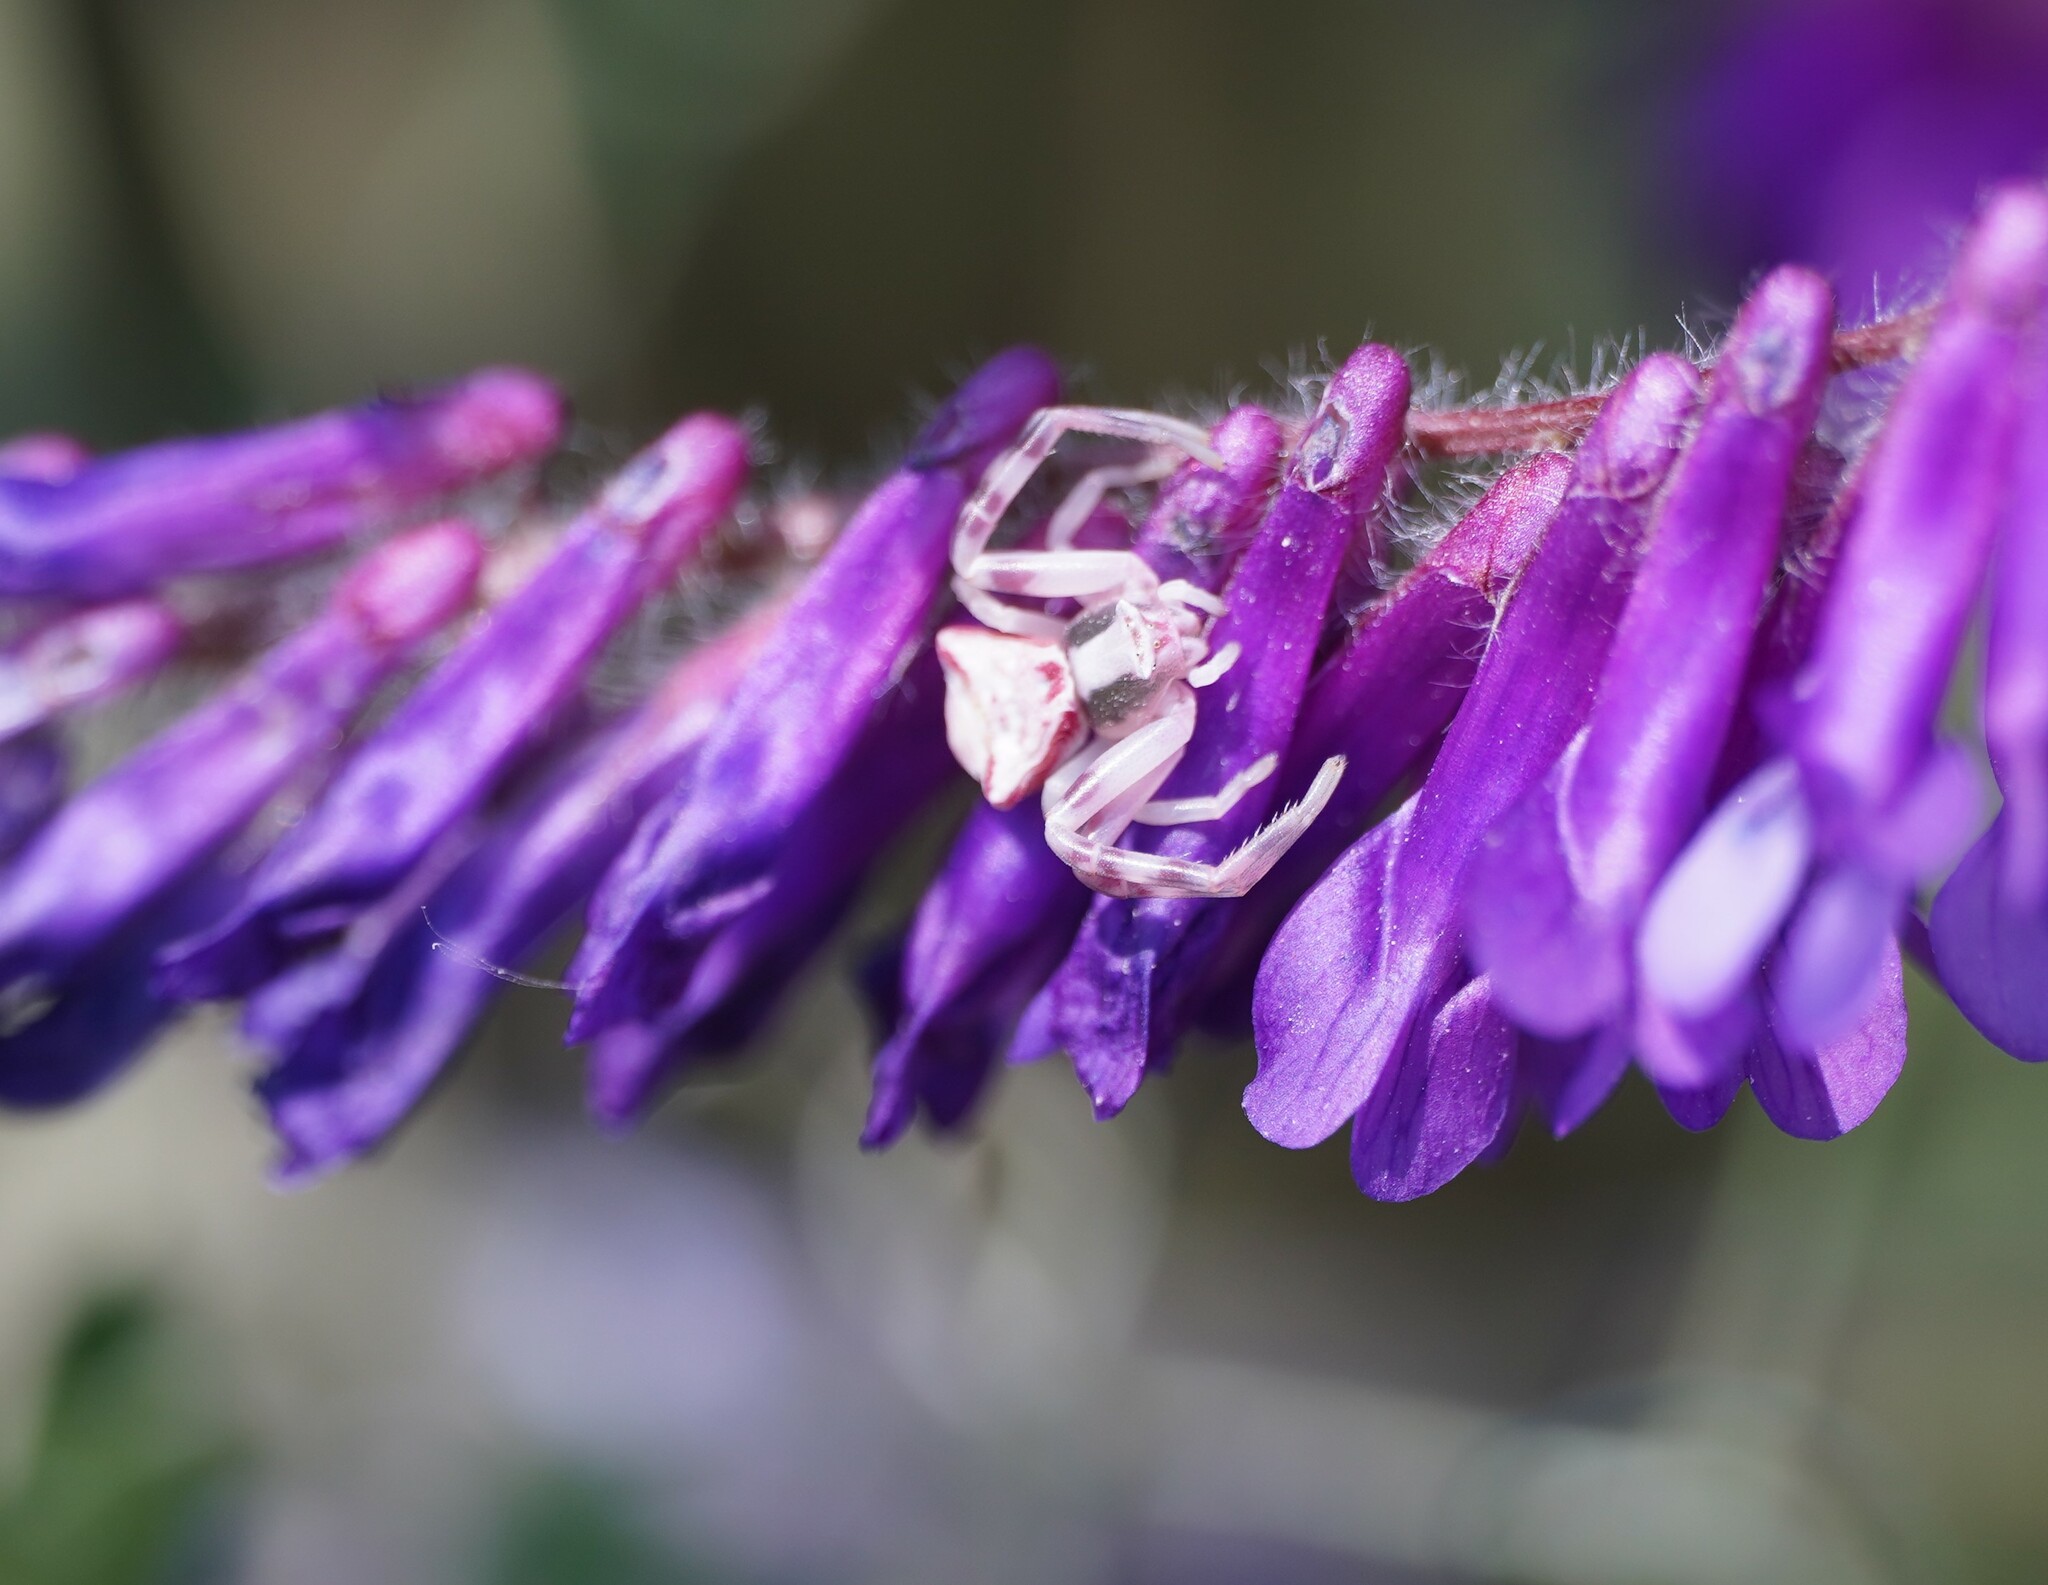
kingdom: Animalia
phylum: Arthropoda
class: Arachnida
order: Araneae
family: Thomisidae
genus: Thomisus
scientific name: Thomisus onustus
